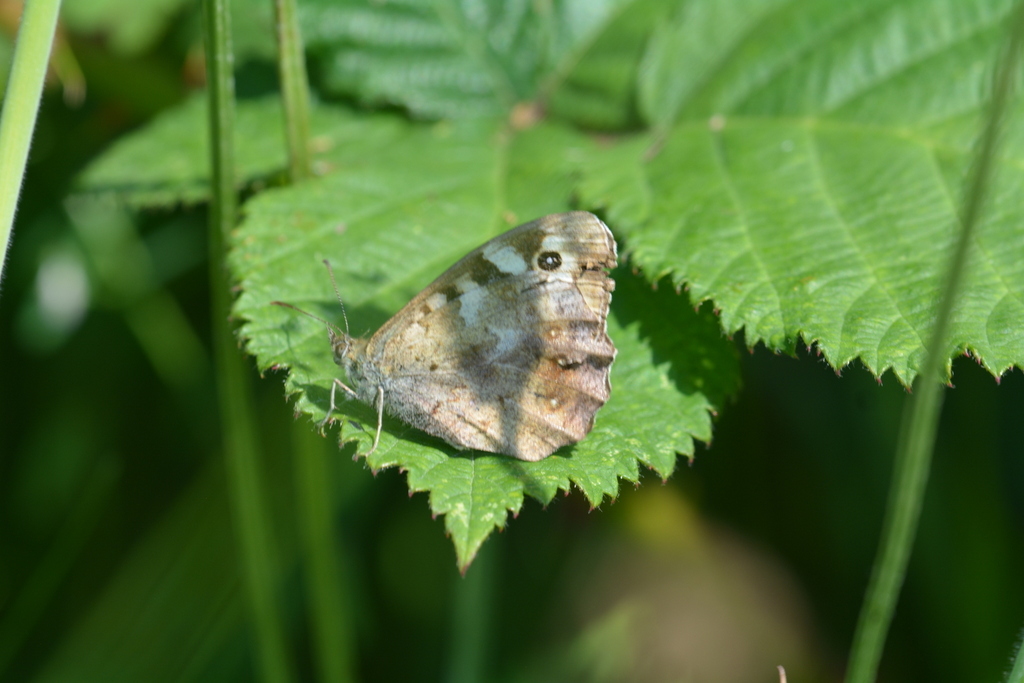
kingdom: Animalia
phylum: Arthropoda
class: Insecta
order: Lepidoptera
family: Nymphalidae
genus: Pararge
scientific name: Pararge aegeria
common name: Speckled wood
